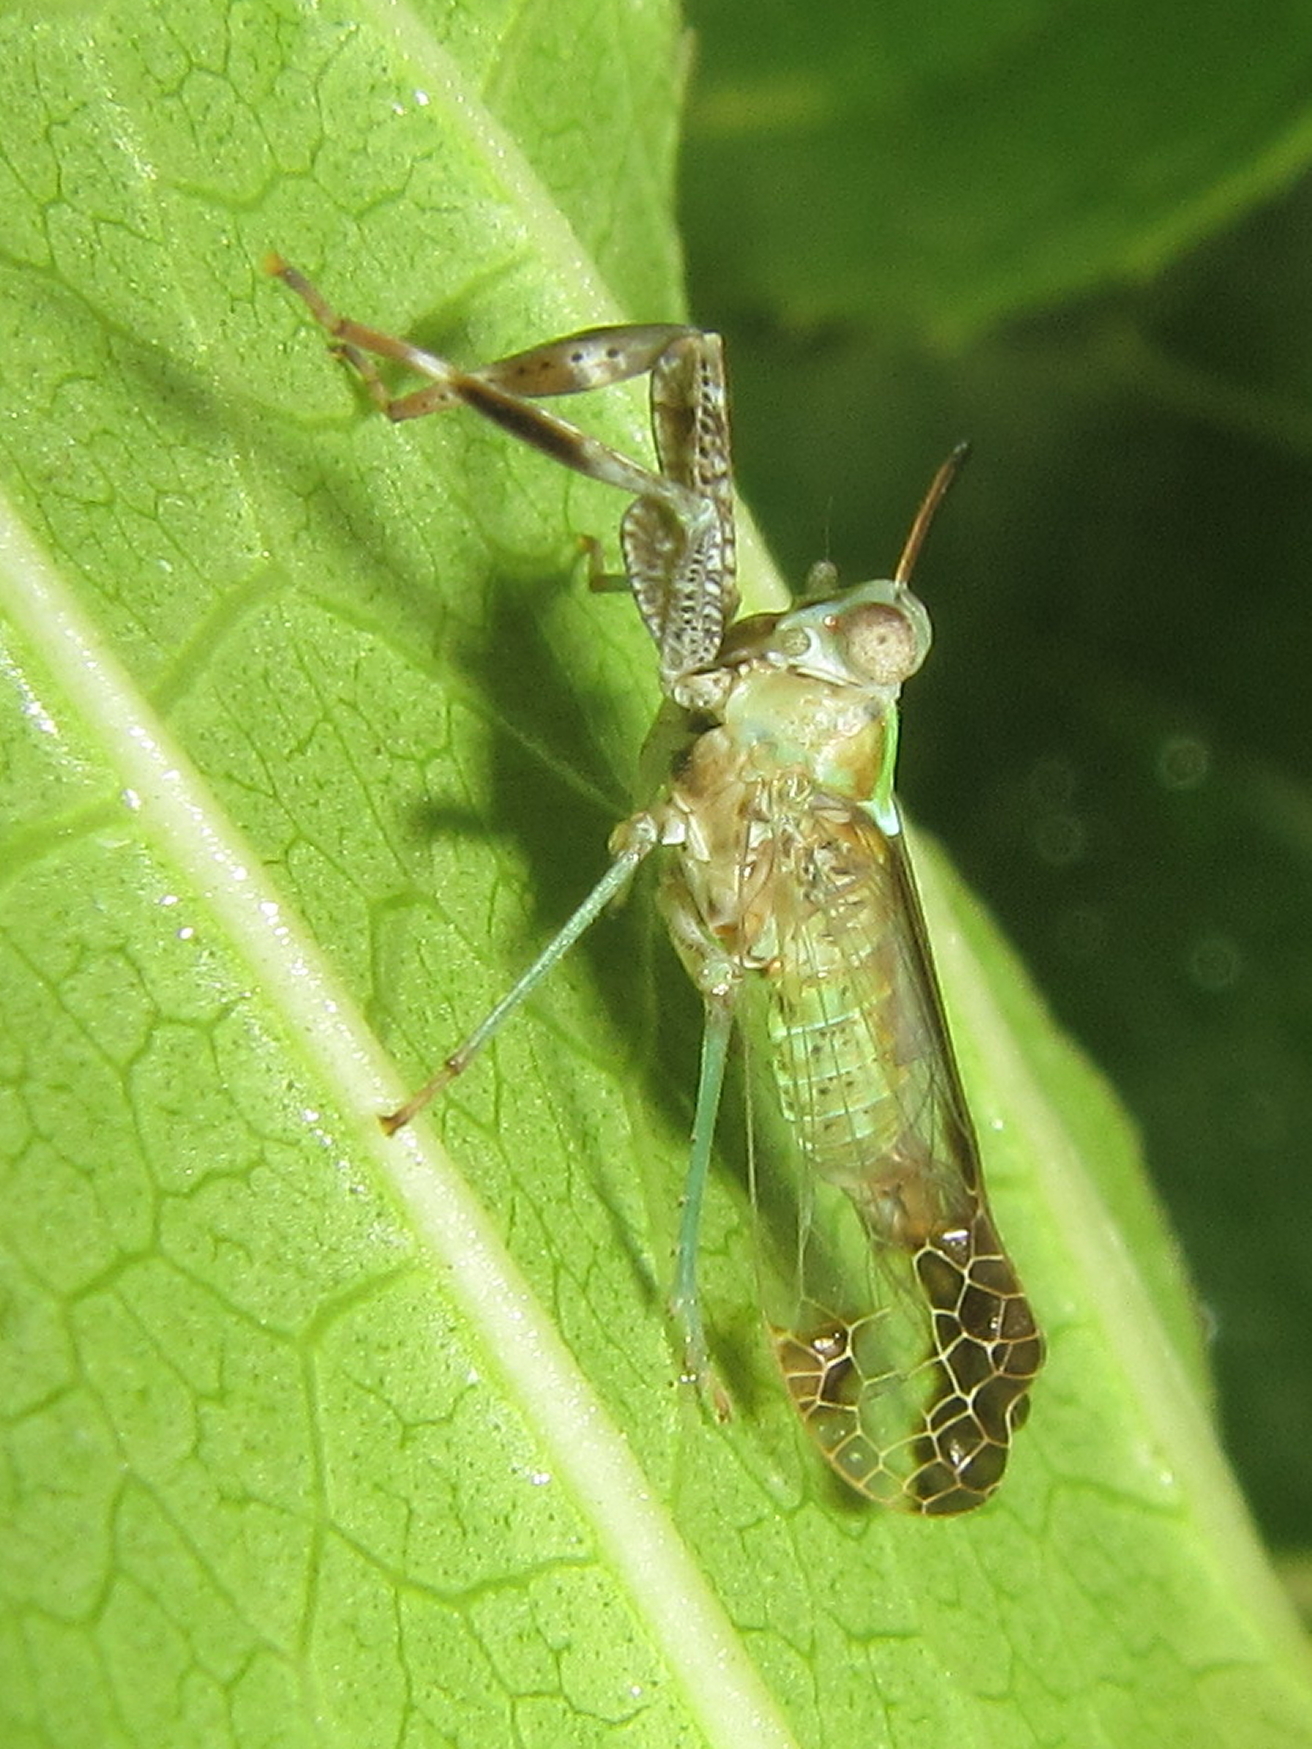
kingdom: Animalia
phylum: Arthropoda
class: Insecta
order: Hemiptera
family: Dictyopharidae
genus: Raphiophora
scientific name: Raphiophora intricata
